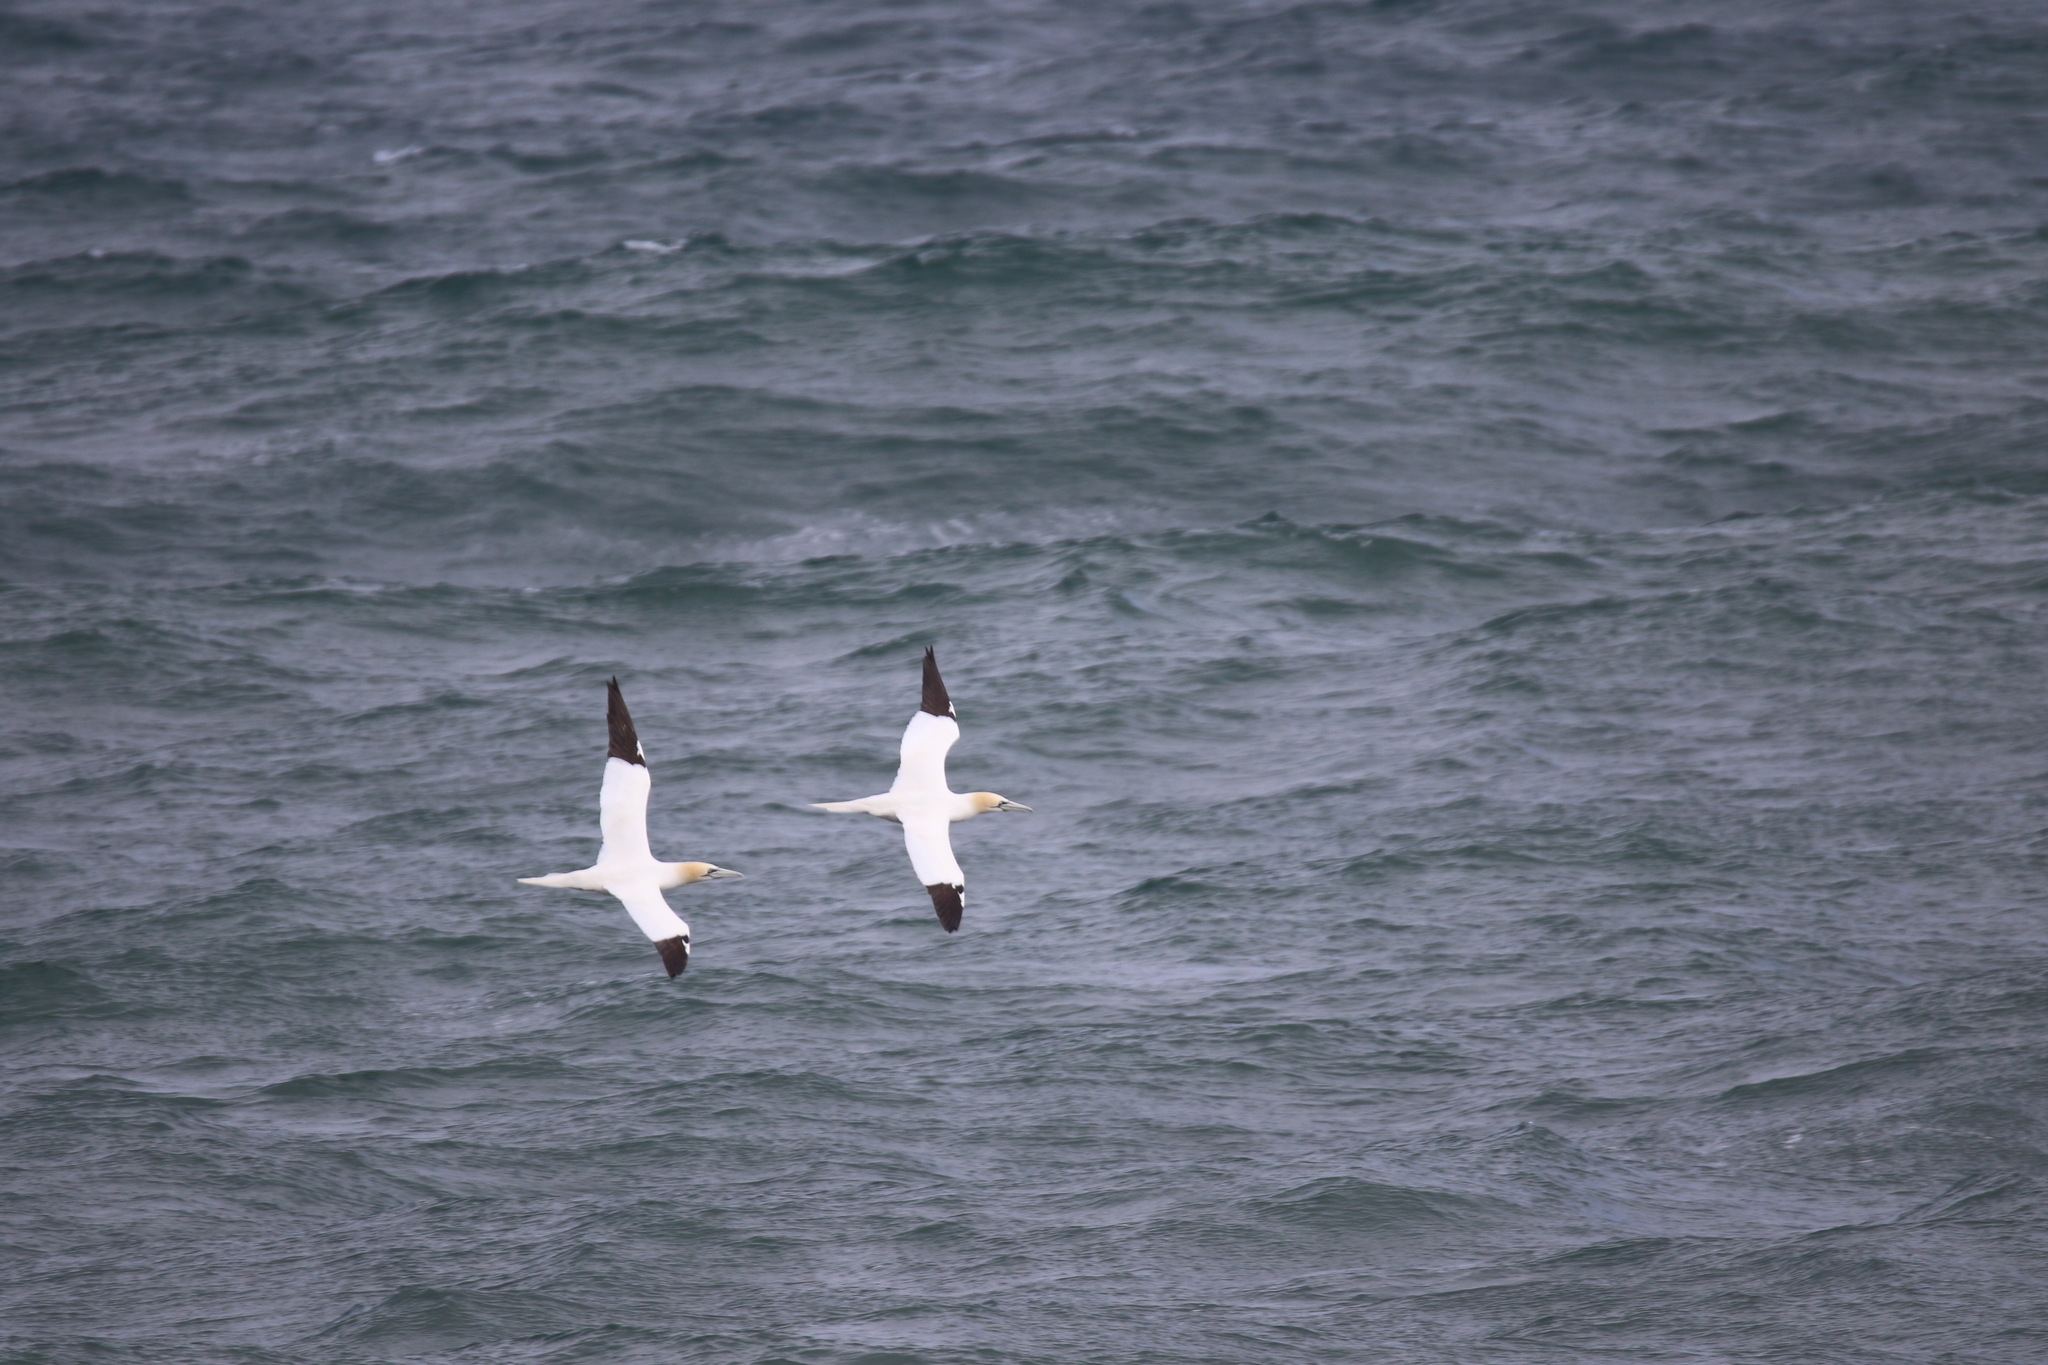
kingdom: Animalia
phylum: Chordata
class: Aves
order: Suliformes
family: Sulidae
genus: Morus
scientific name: Morus bassanus
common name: Northern gannet
